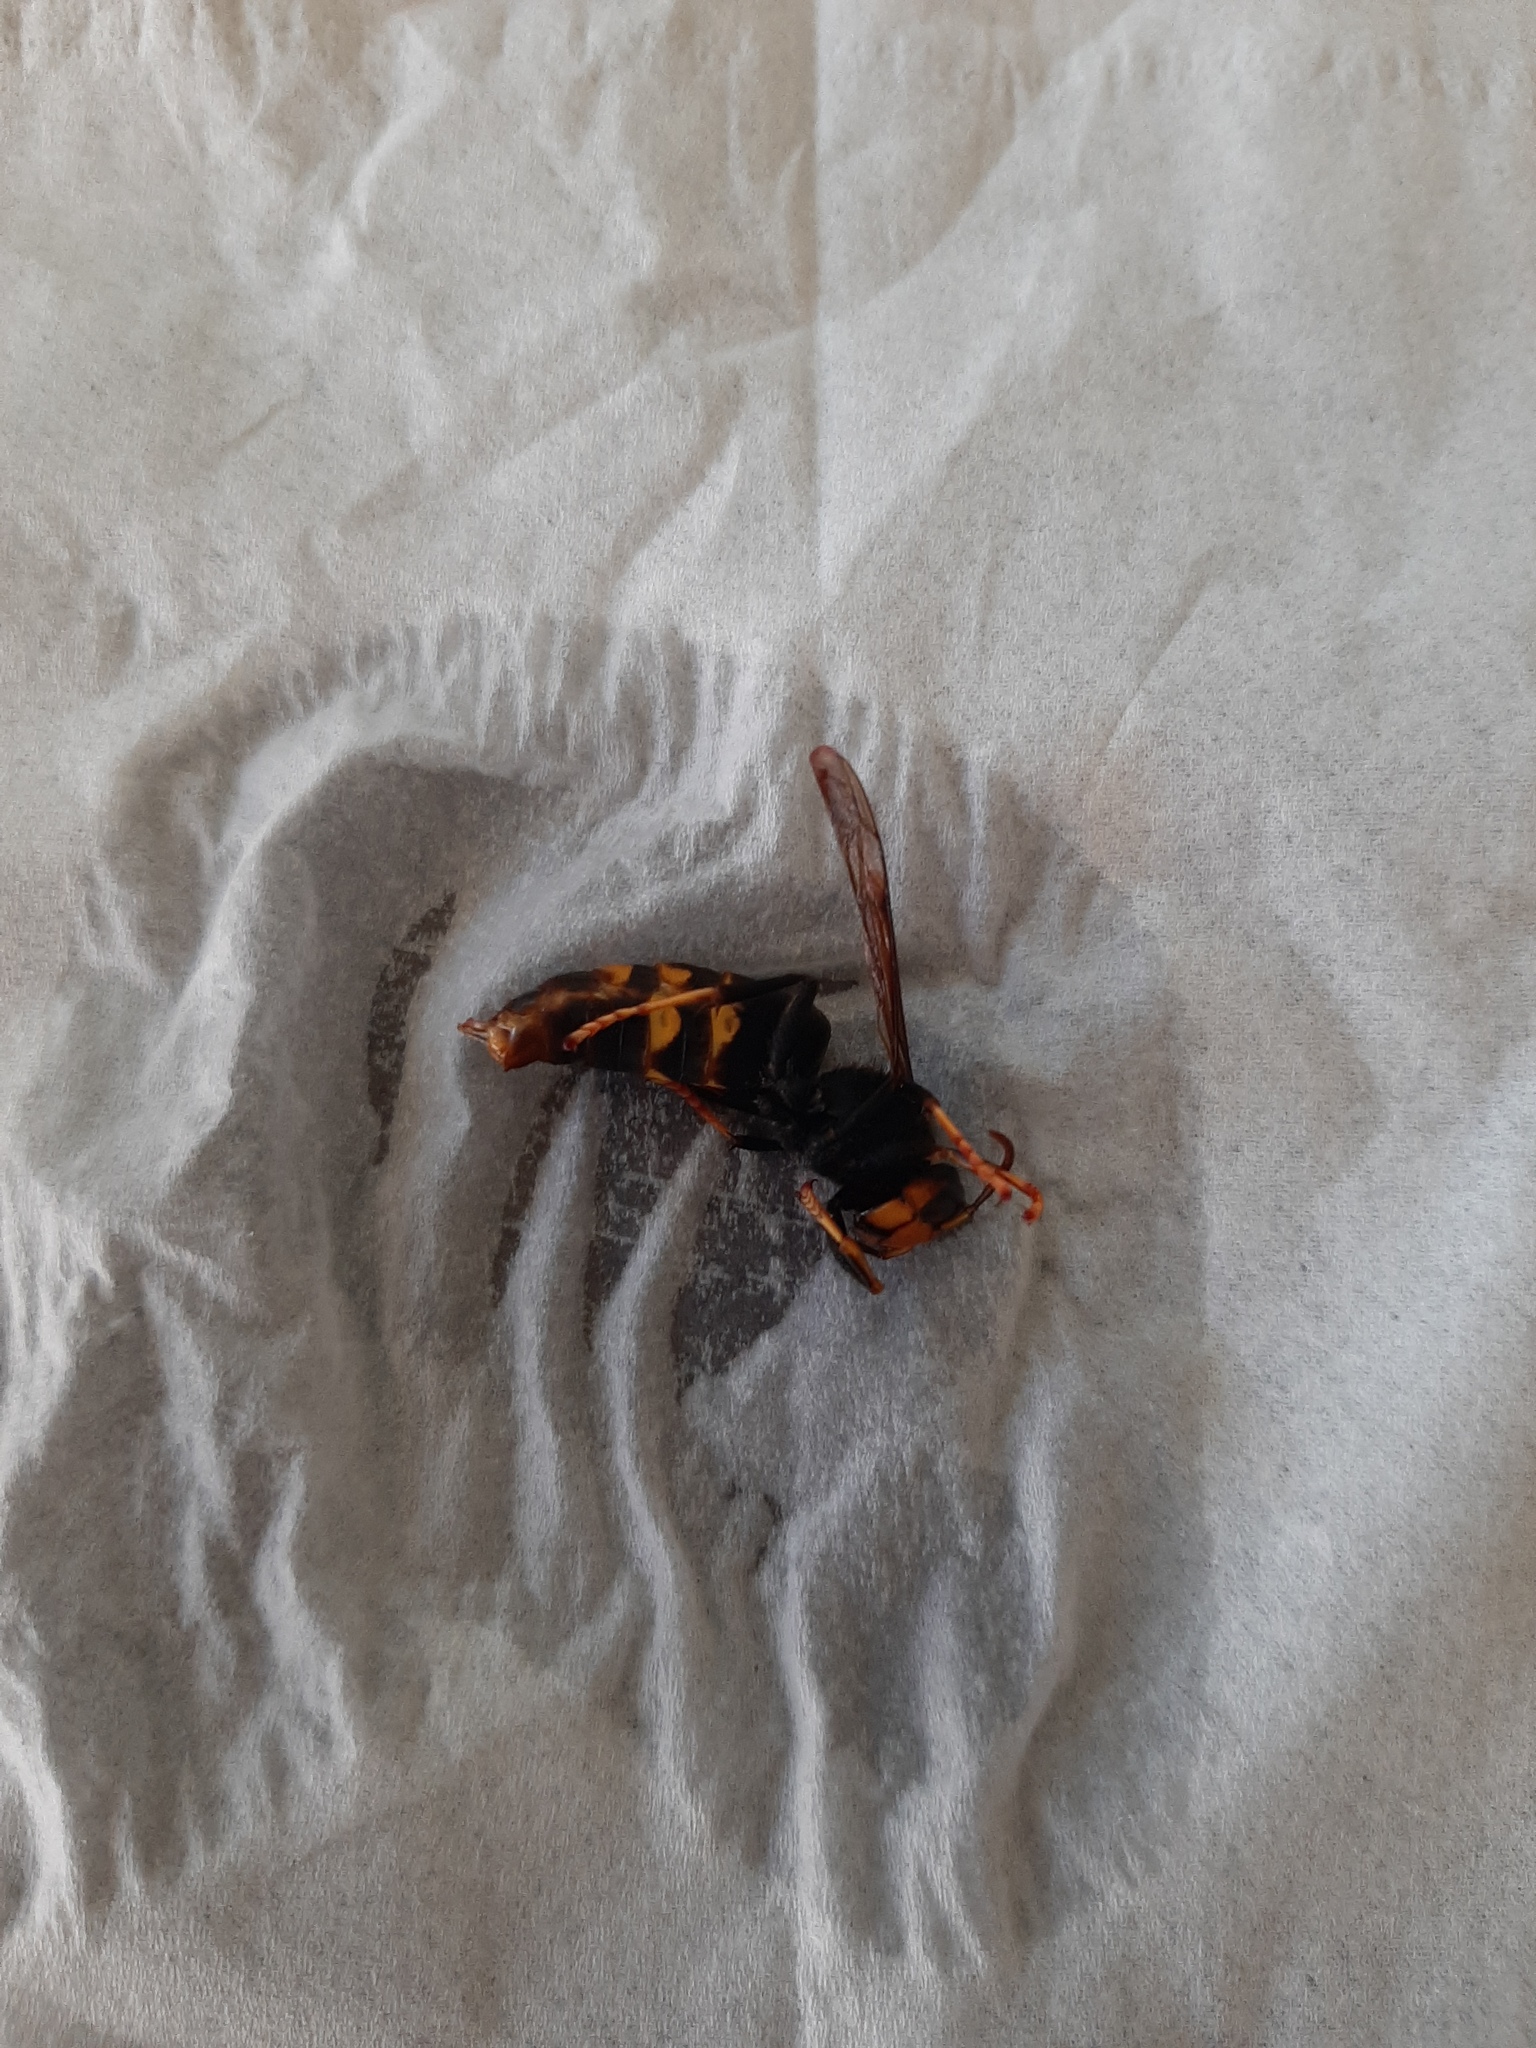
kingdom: Animalia
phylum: Arthropoda
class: Insecta
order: Hymenoptera
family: Vespidae
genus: Vespa
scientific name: Vespa velutina
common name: Asian hornet
